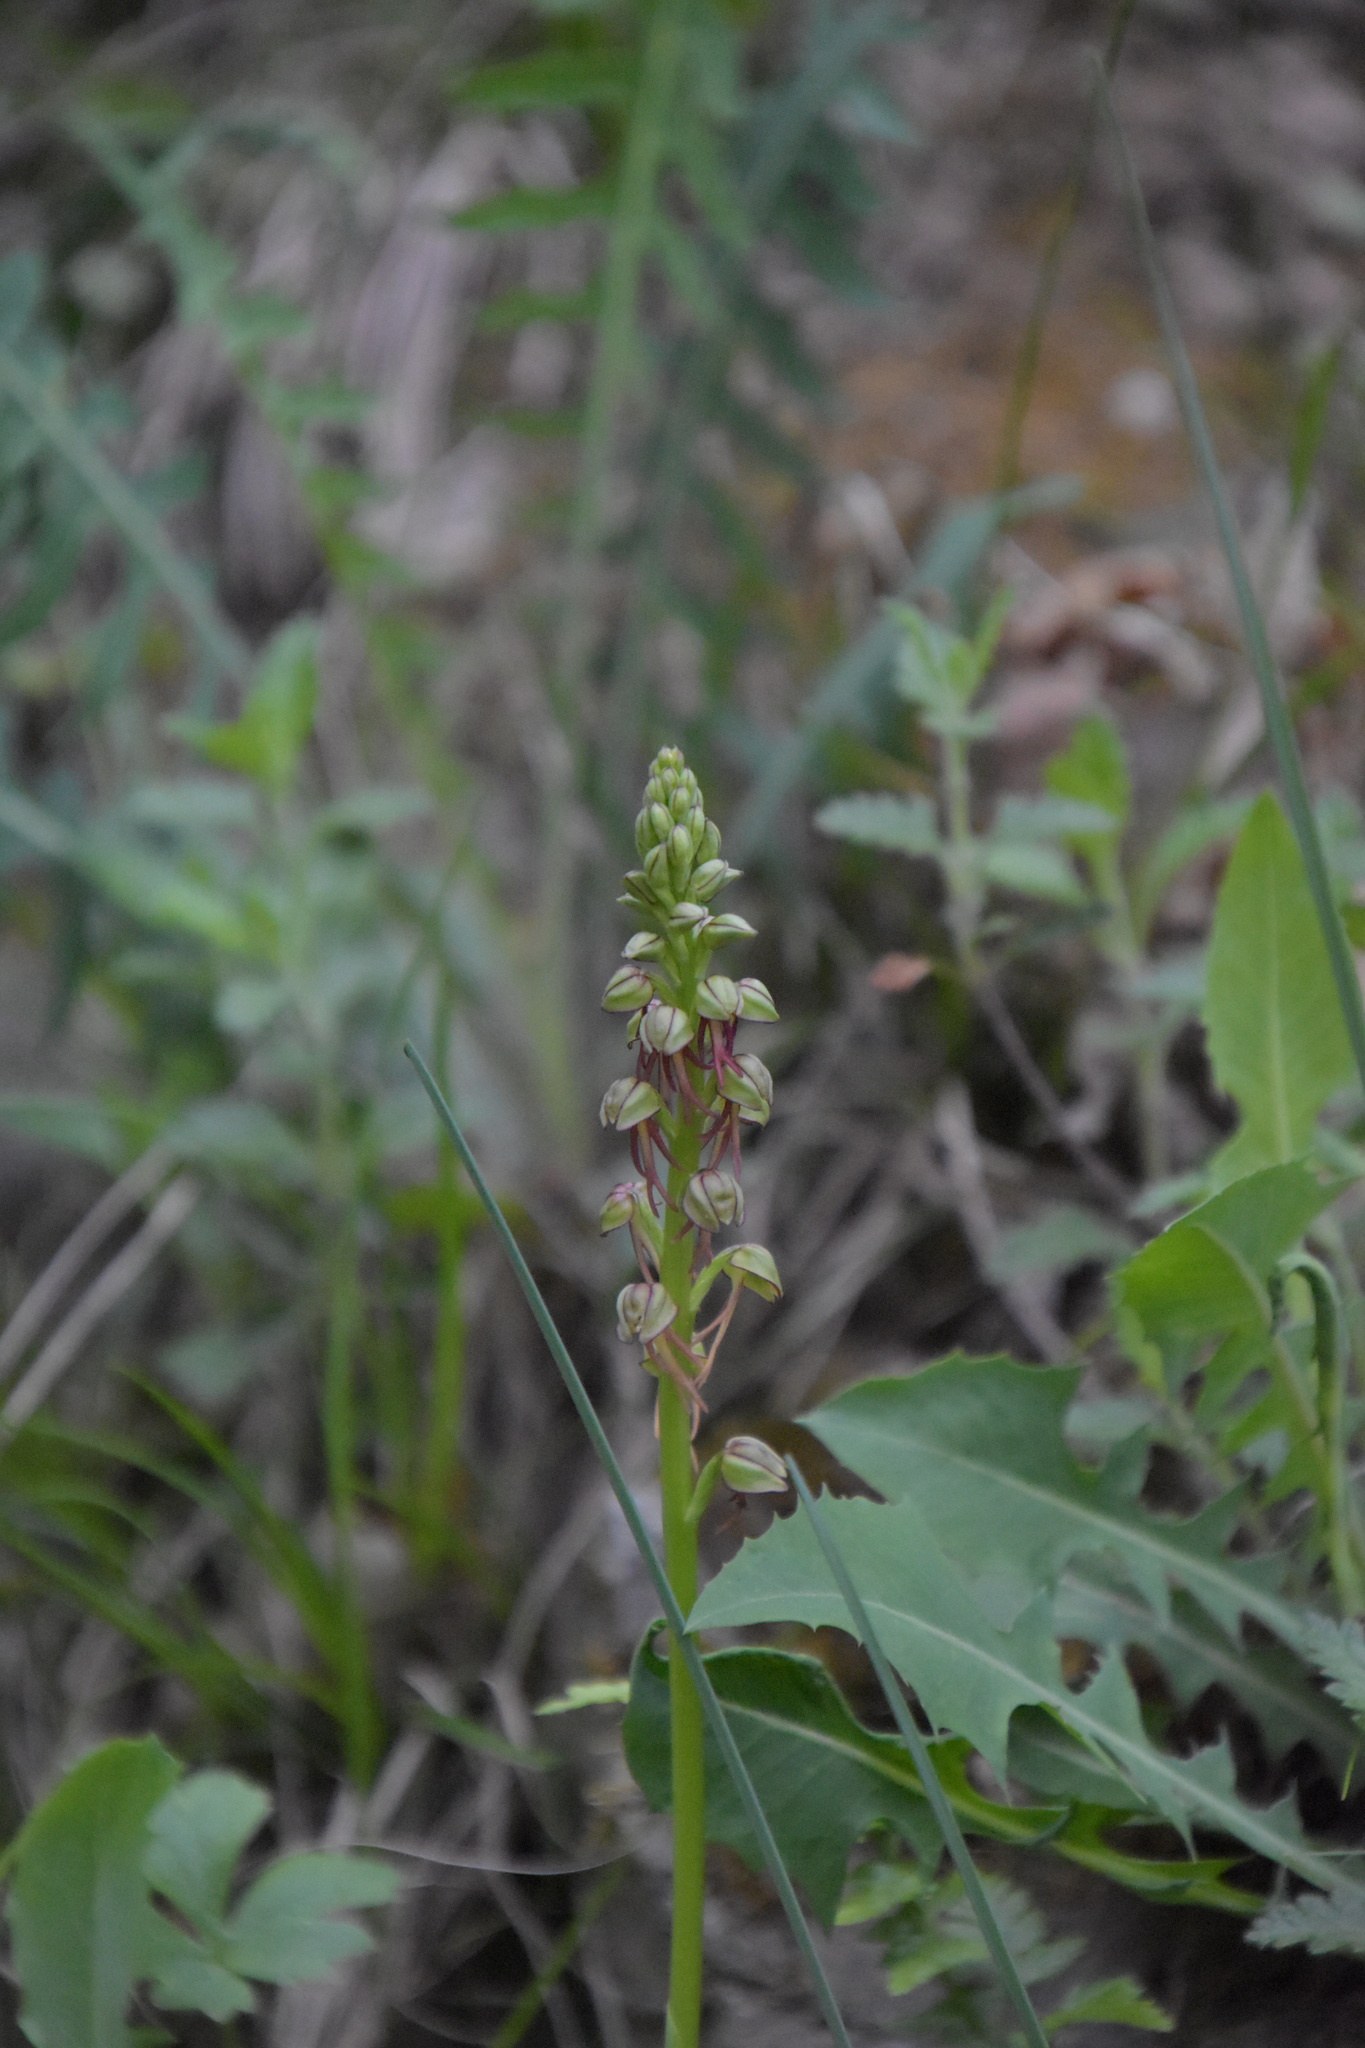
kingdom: Plantae
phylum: Tracheophyta
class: Liliopsida
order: Asparagales
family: Orchidaceae
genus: Orchis
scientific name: Orchis anthropophora
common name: Man orchid
